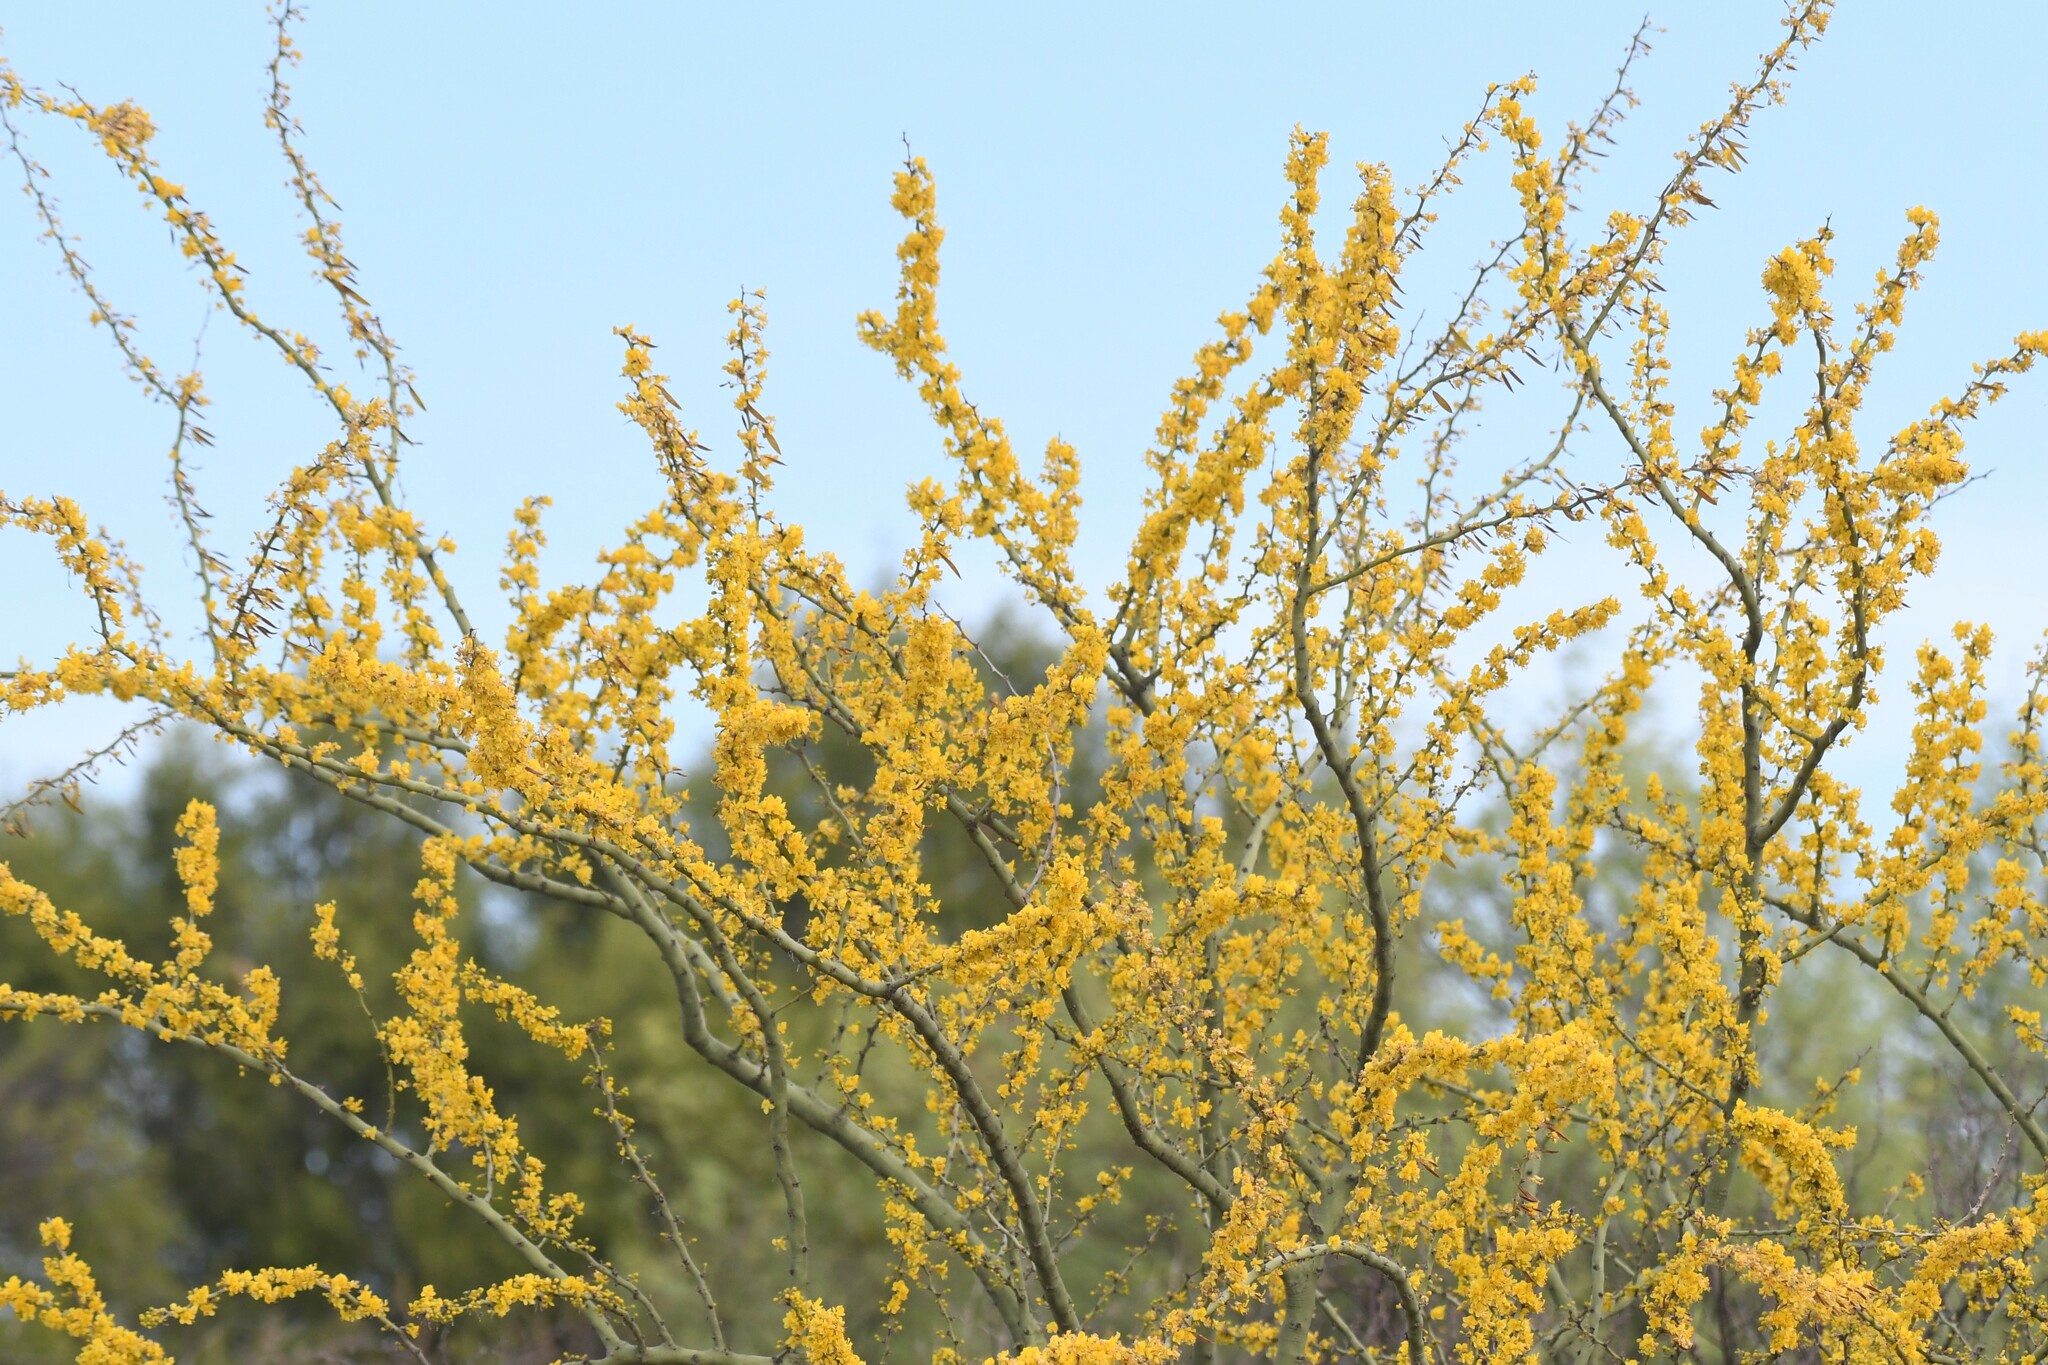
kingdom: Plantae
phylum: Tracheophyta
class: Magnoliopsida
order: Fabales
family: Fabaceae
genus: Parkinsonia
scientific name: Parkinsonia praecox
